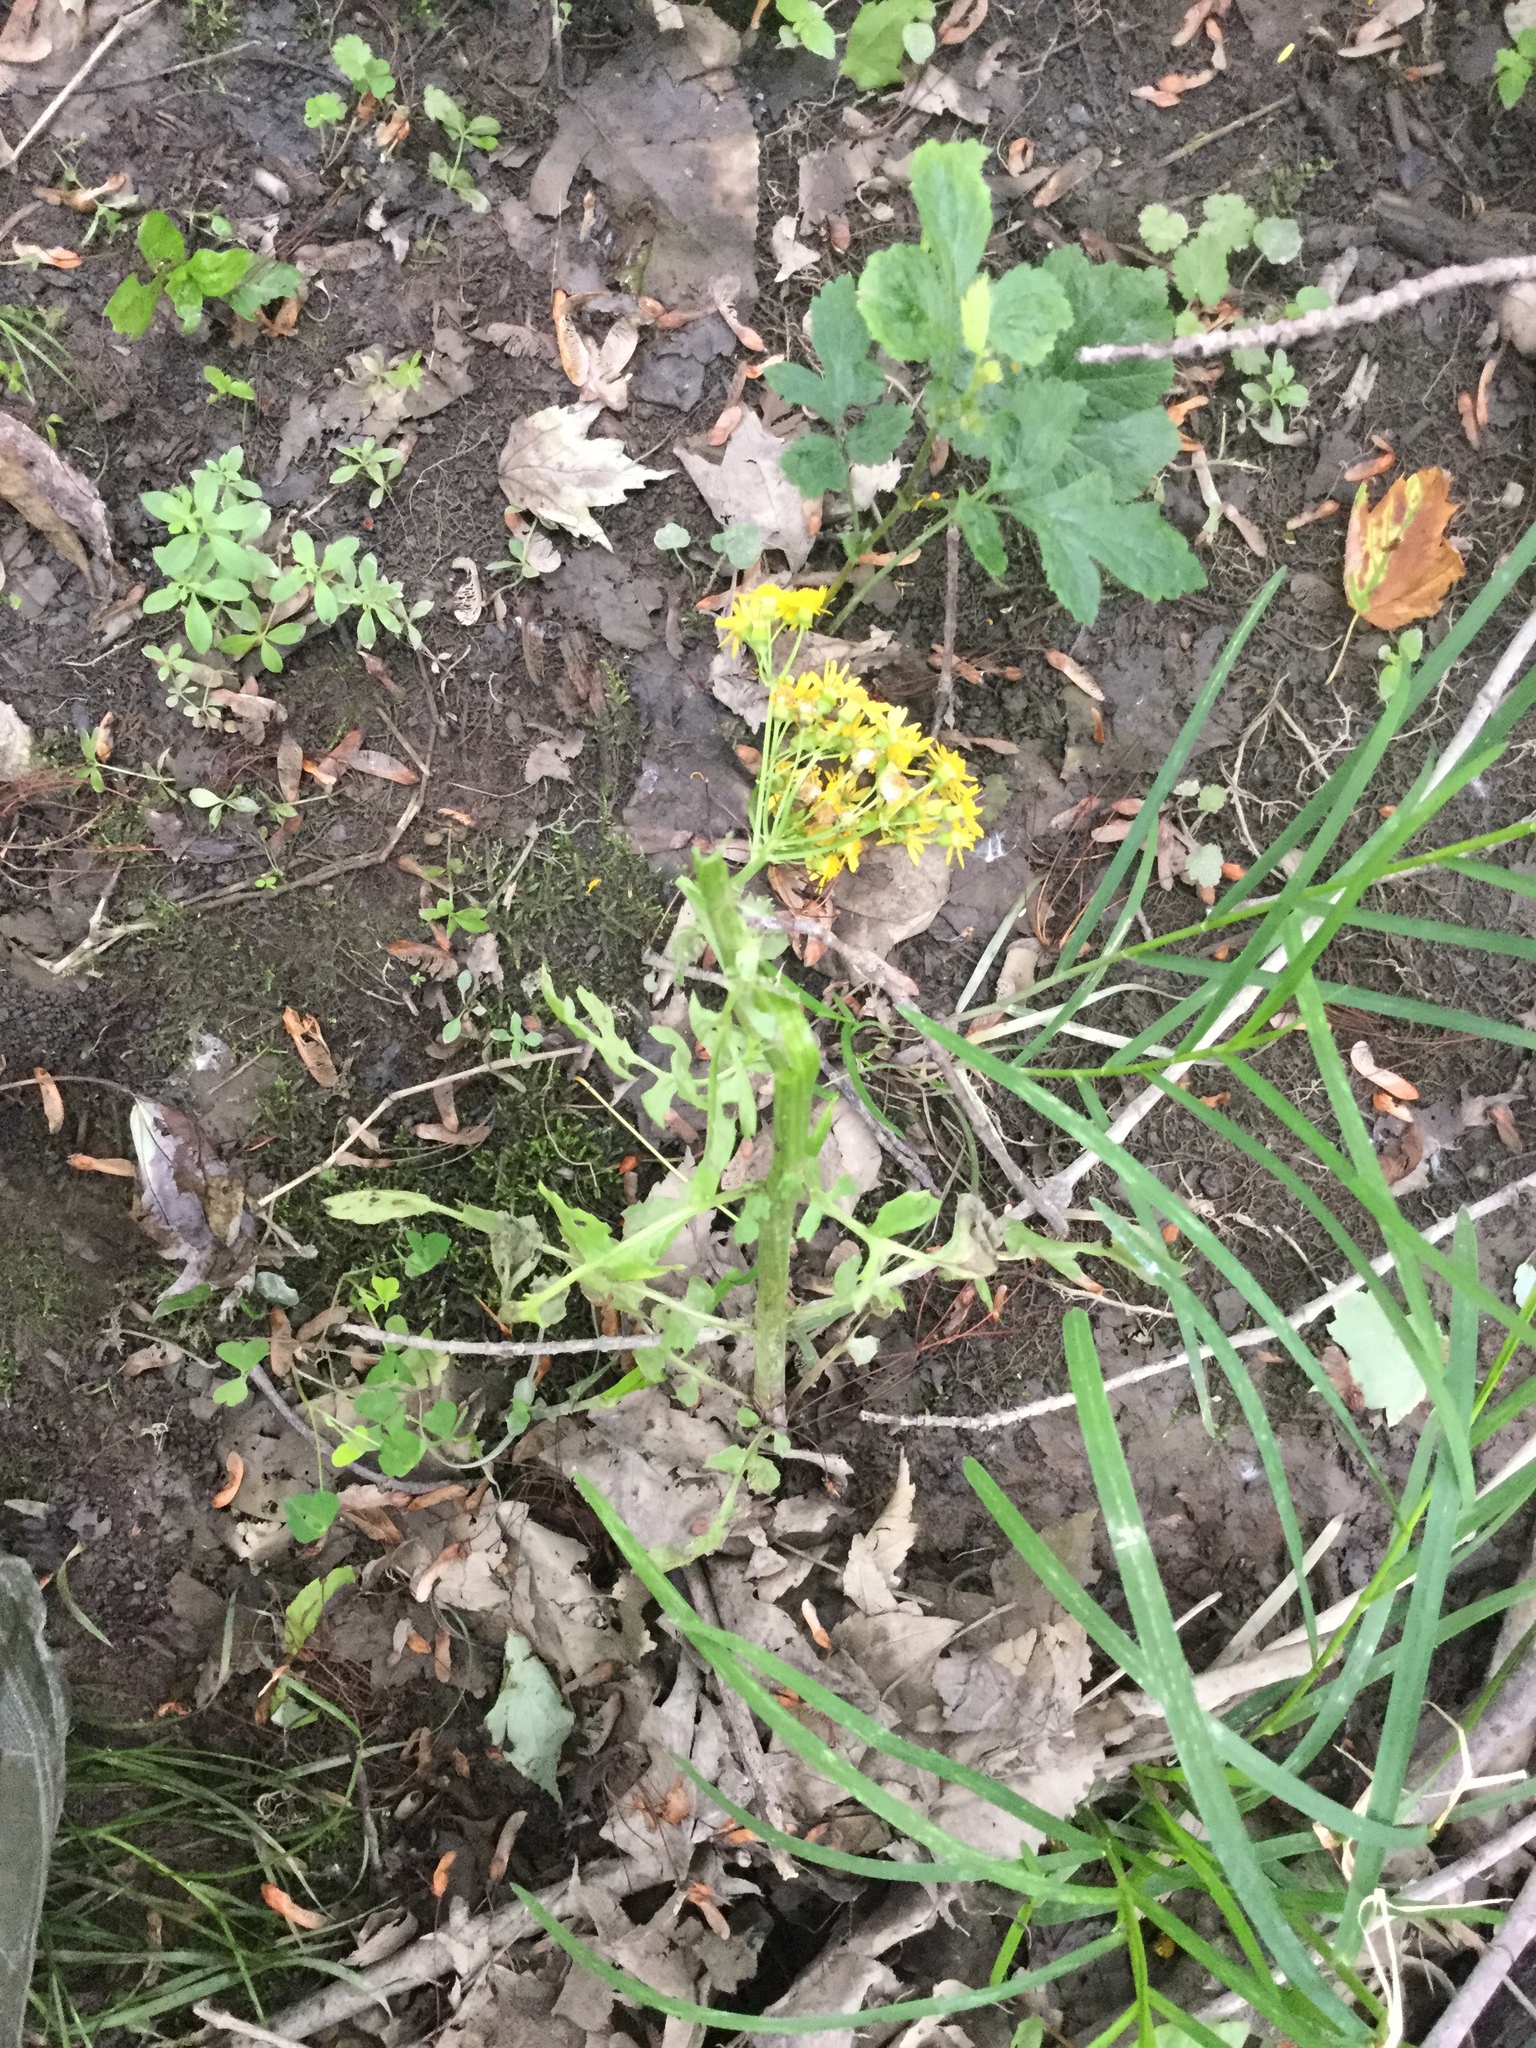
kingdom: Plantae
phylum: Tracheophyta
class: Magnoliopsida
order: Asterales
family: Asteraceae
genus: Packera
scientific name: Packera glabella
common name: Butterweed
